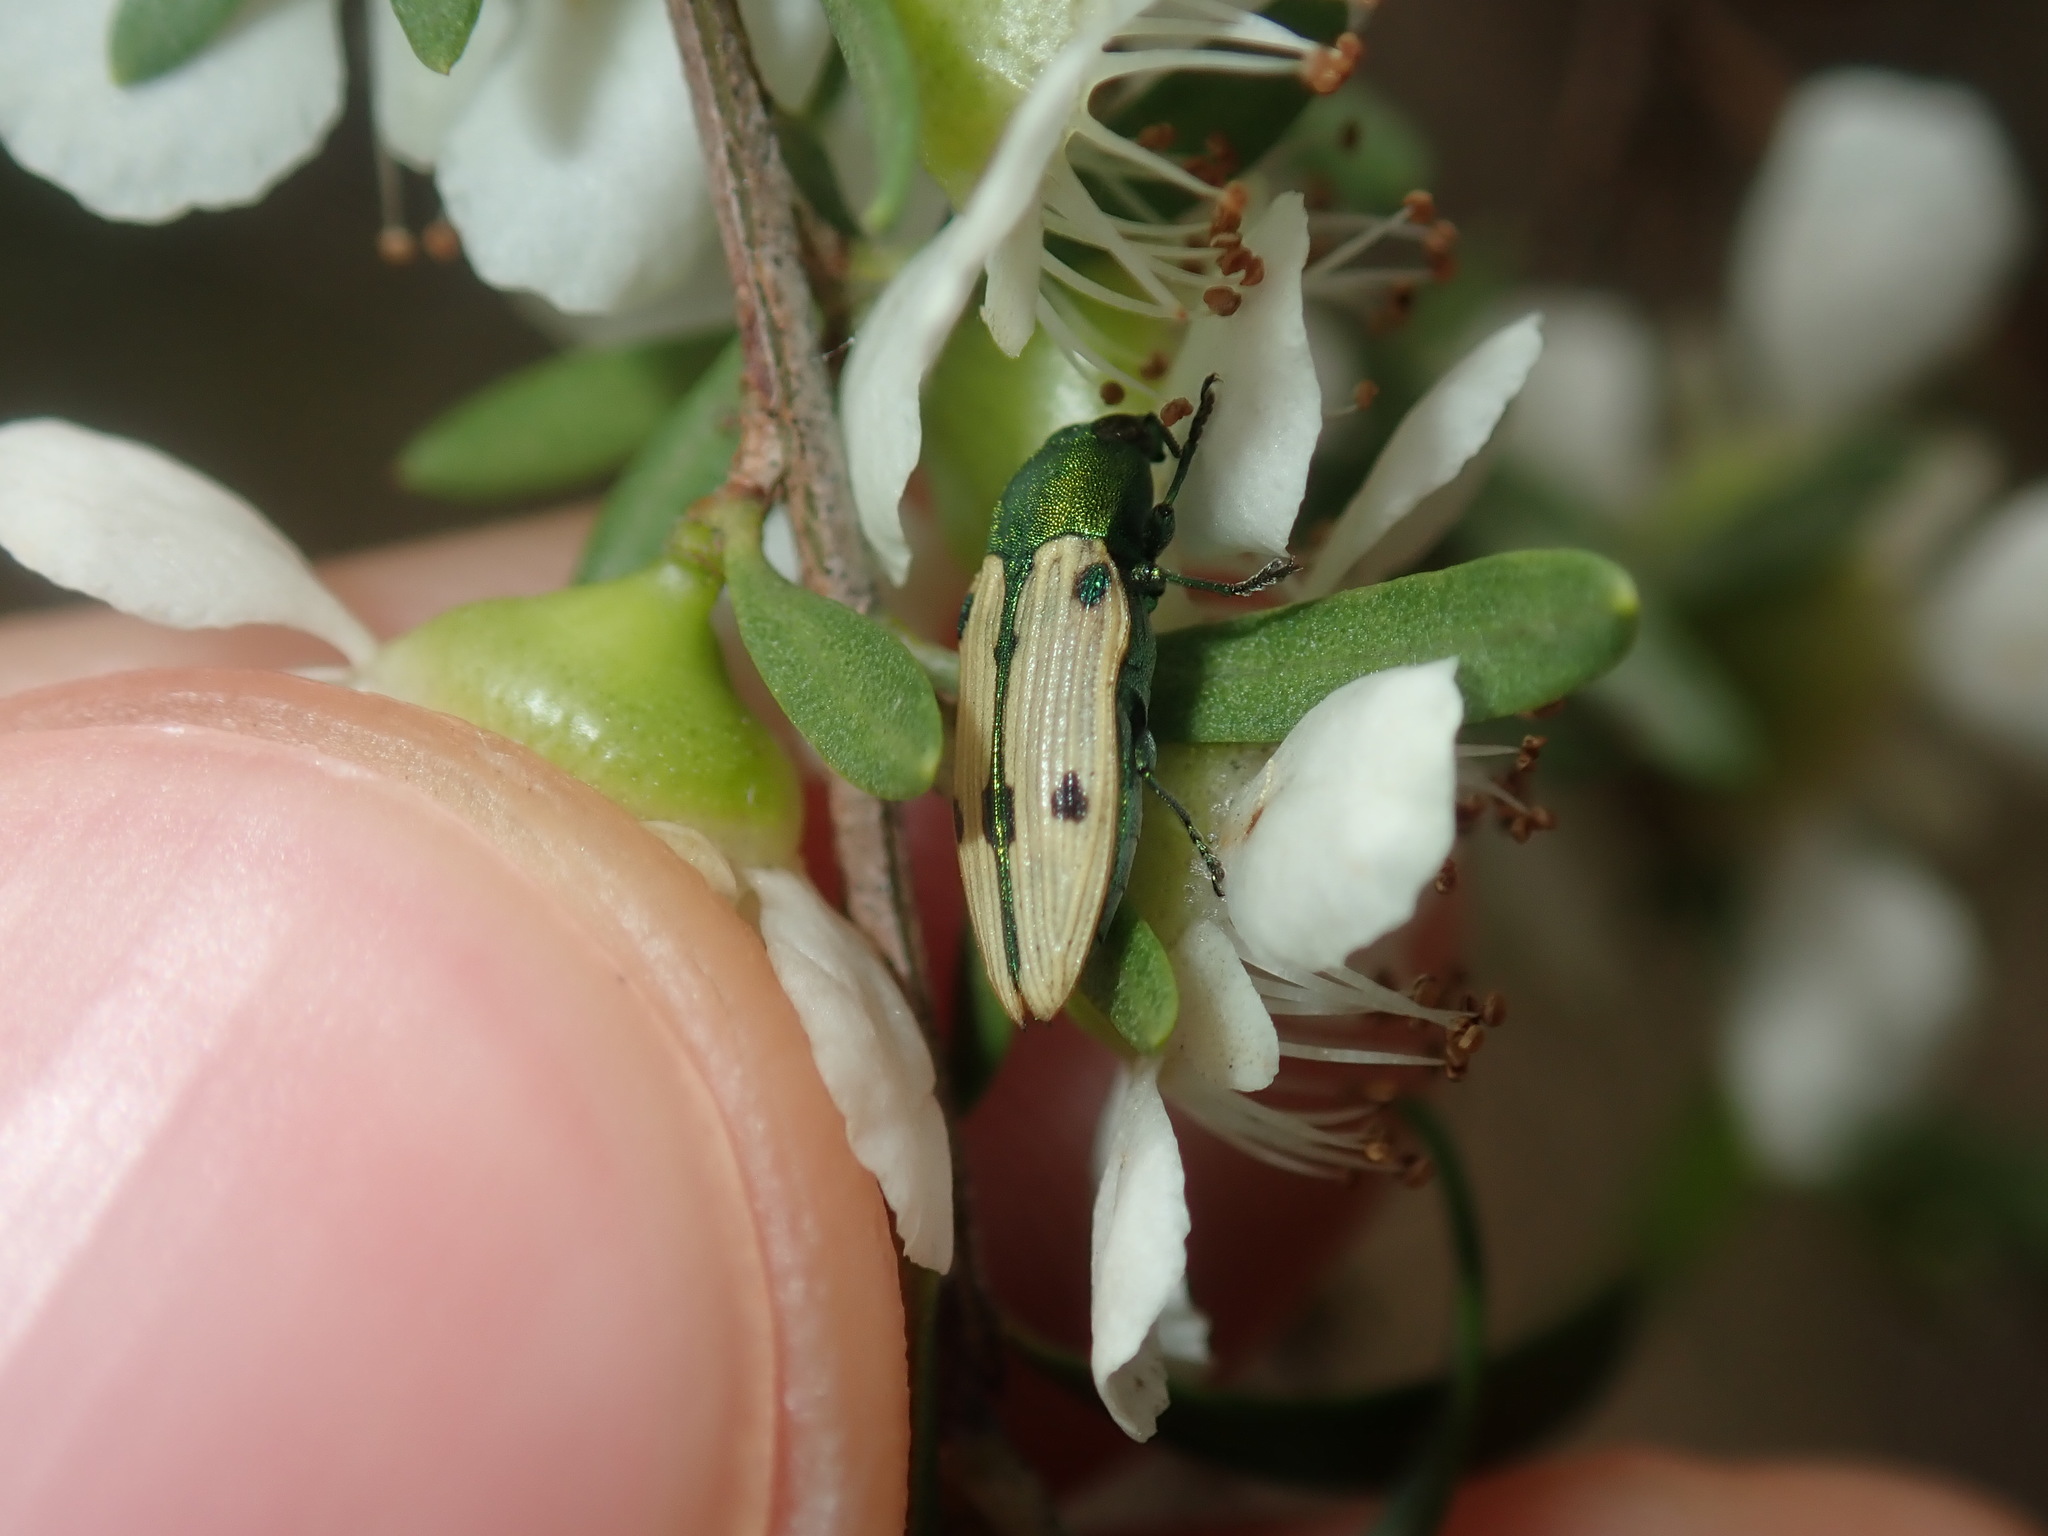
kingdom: Animalia
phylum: Arthropoda
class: Insecta
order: Coleoptera
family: Buprestidae
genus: Castiarina
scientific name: Castiarina sexguttata
